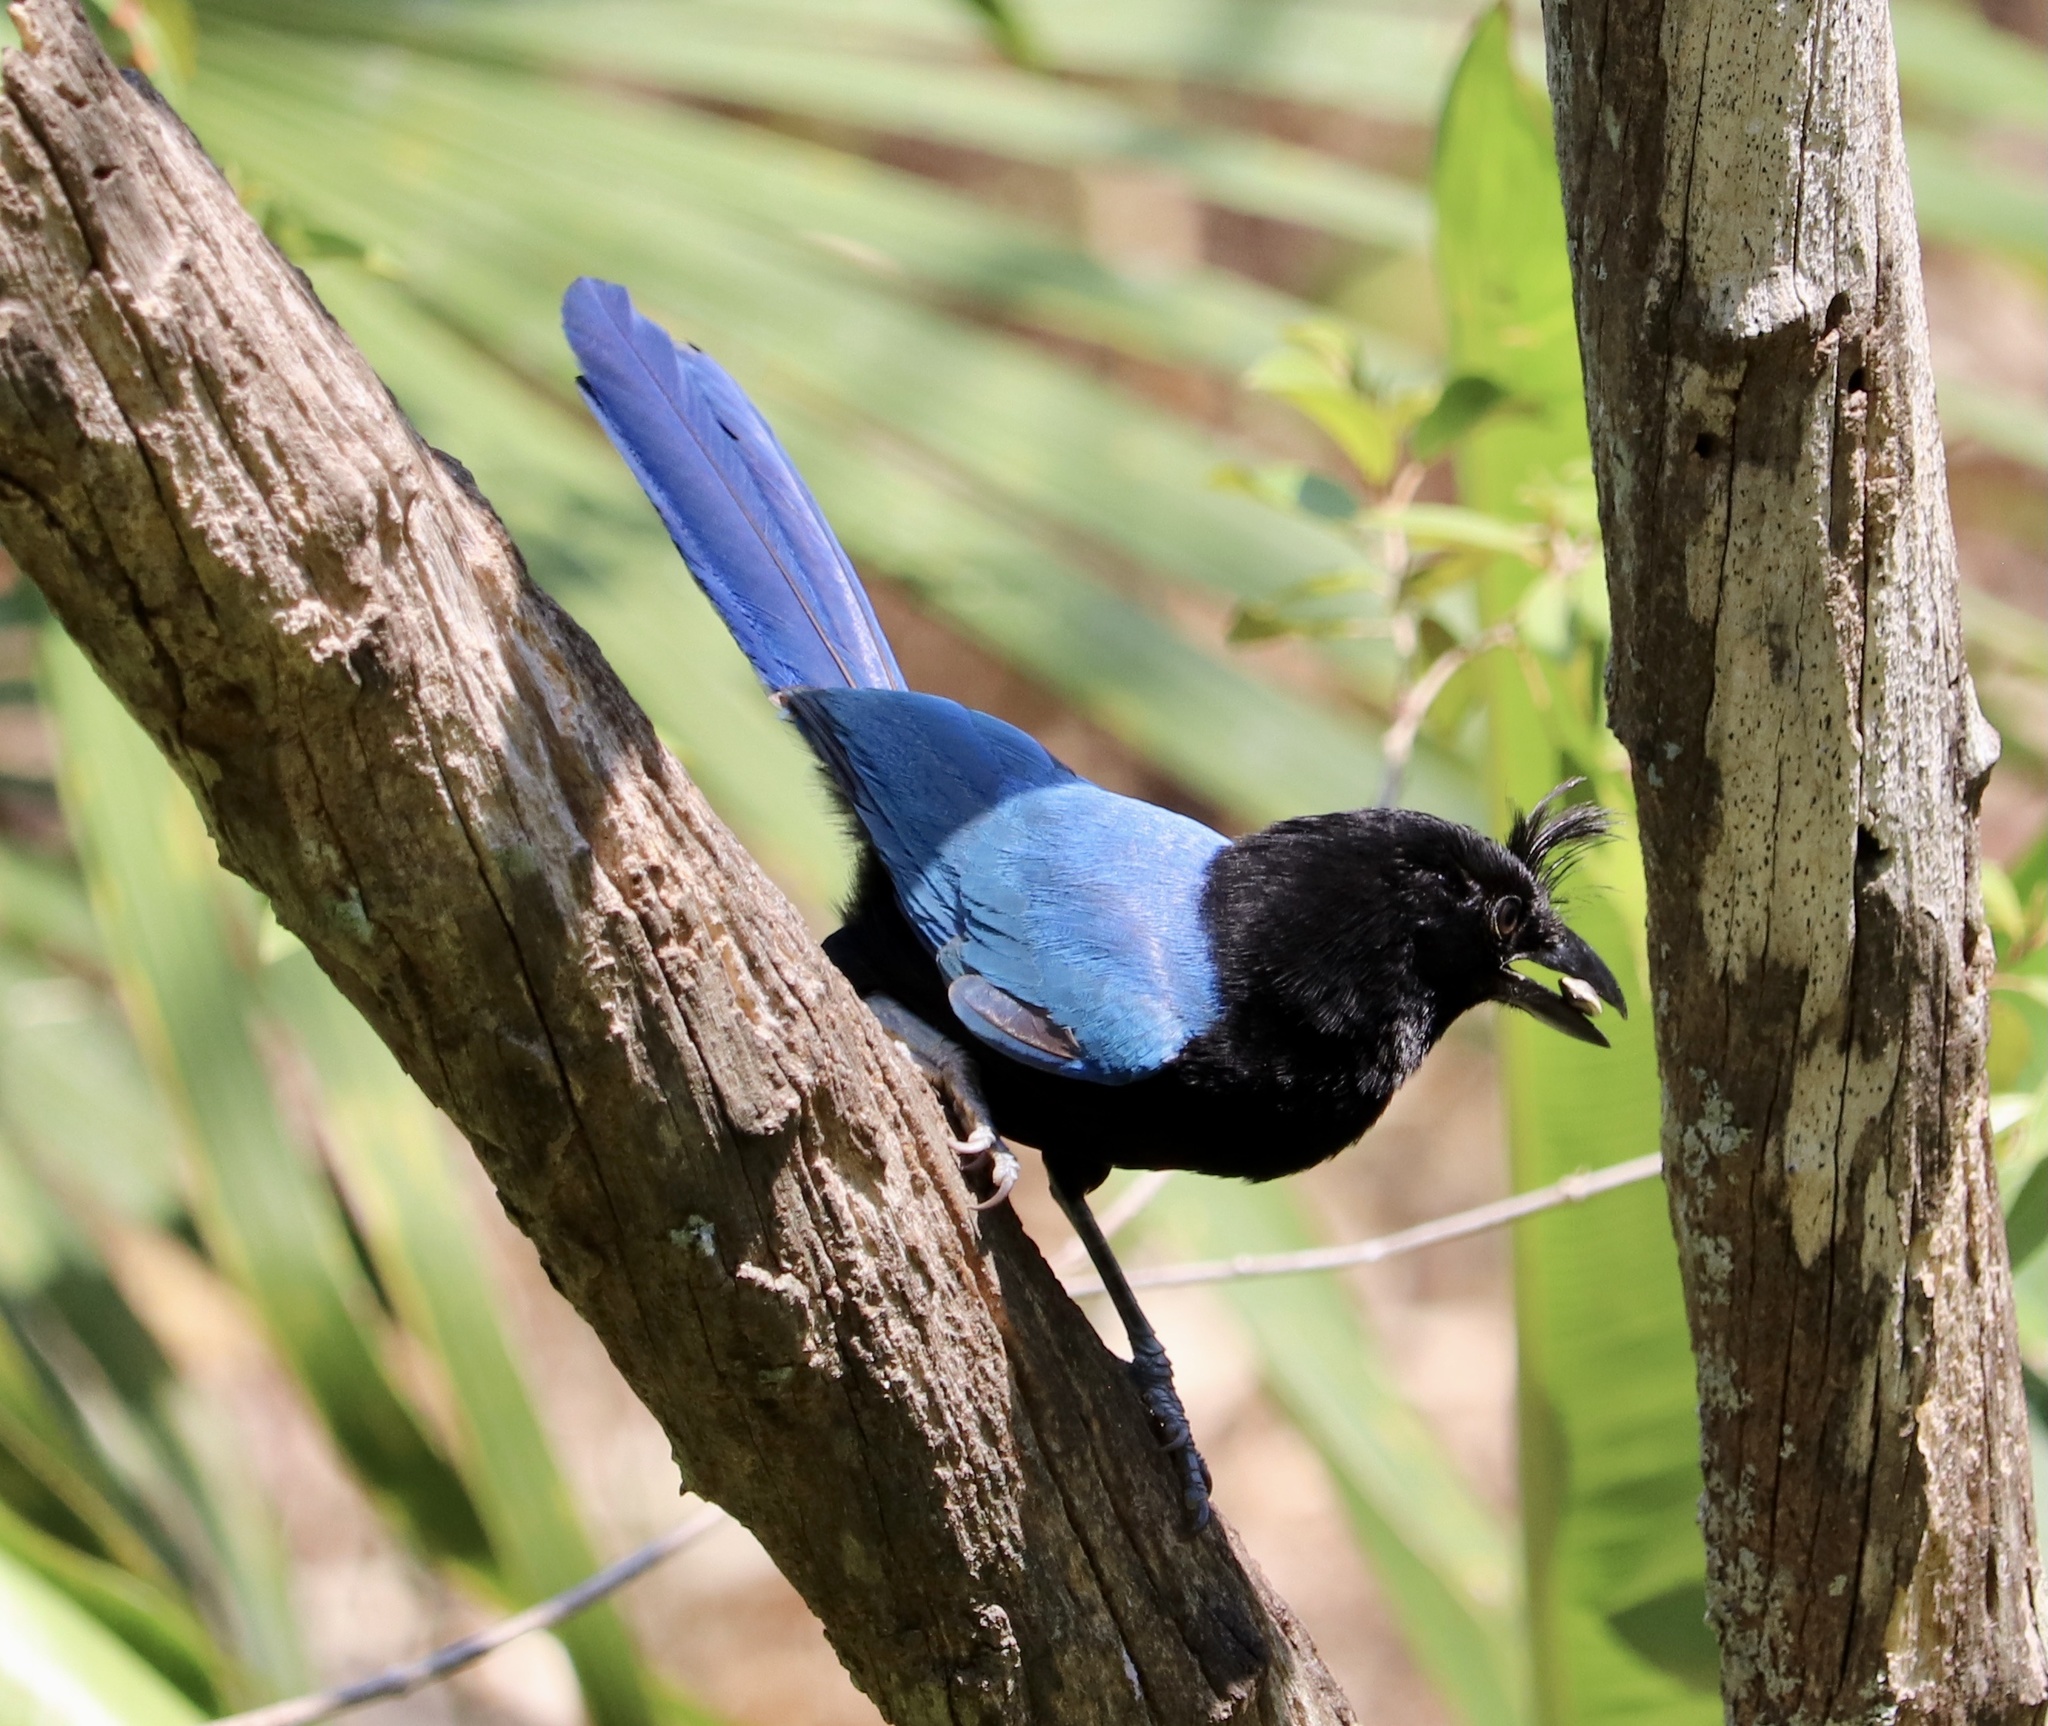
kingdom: Animalia
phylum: Chordata
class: Aves
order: Passeriformes
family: Corvidae
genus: Cyanocorax
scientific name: Cyanocorax sanblasianus
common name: San blas jay
